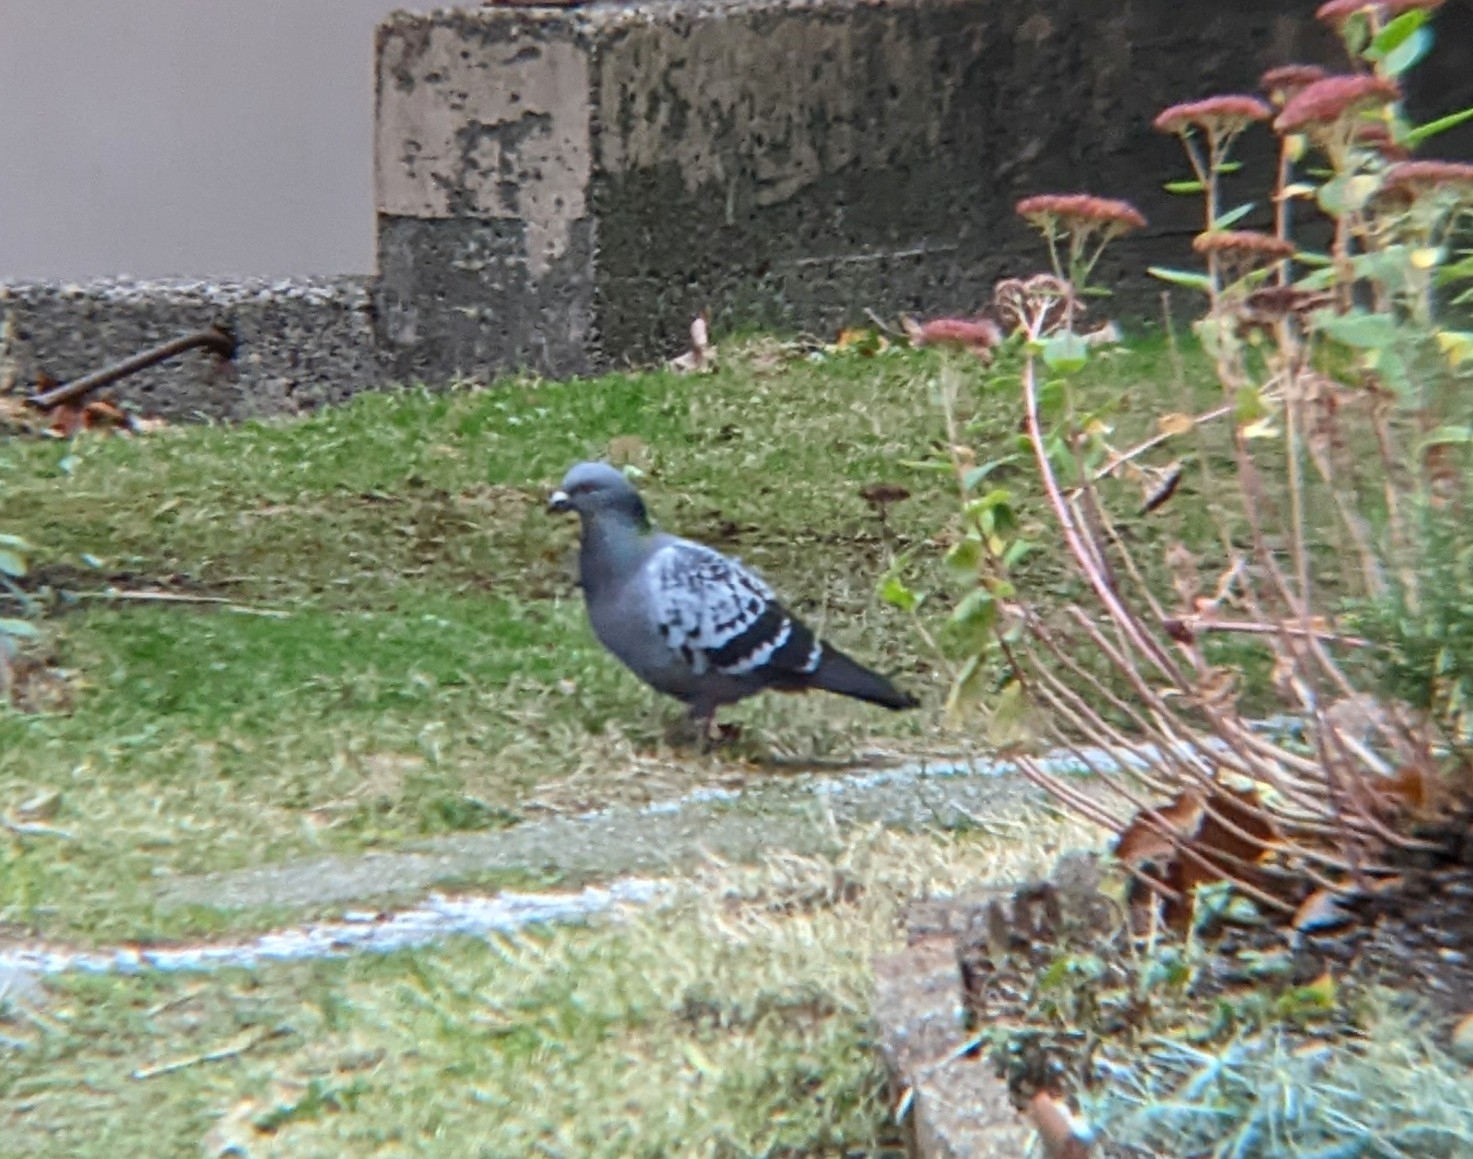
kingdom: Animalia
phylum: Chordata
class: Aves
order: Columbiformes
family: Columbidae
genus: Columba
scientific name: Columba livia
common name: Rock pigeon
